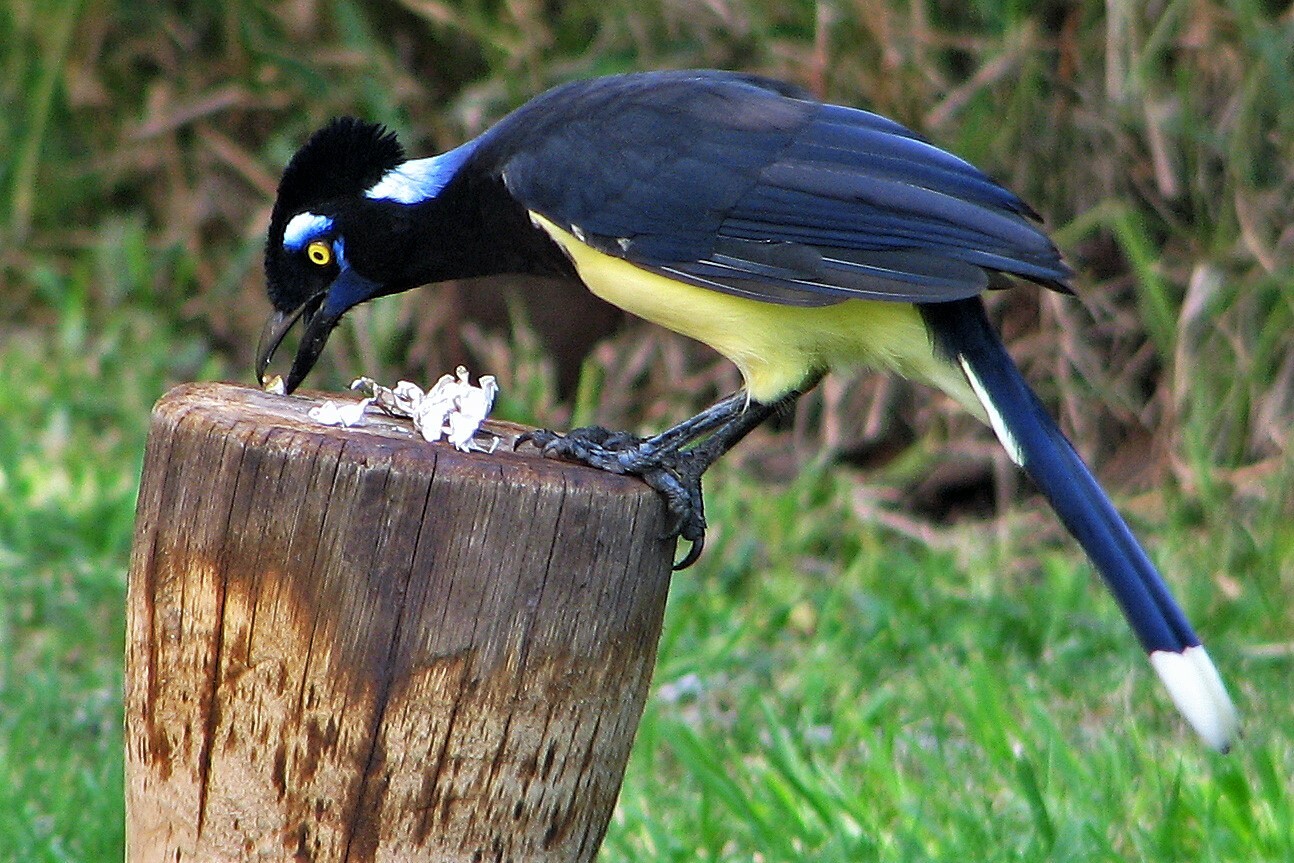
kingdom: Animalia
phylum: Chordata
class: Aves
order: Passeriformes
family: Corvidae
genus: Cyanocorax
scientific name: Cyanocorax chrysops
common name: Plush-crested jay
